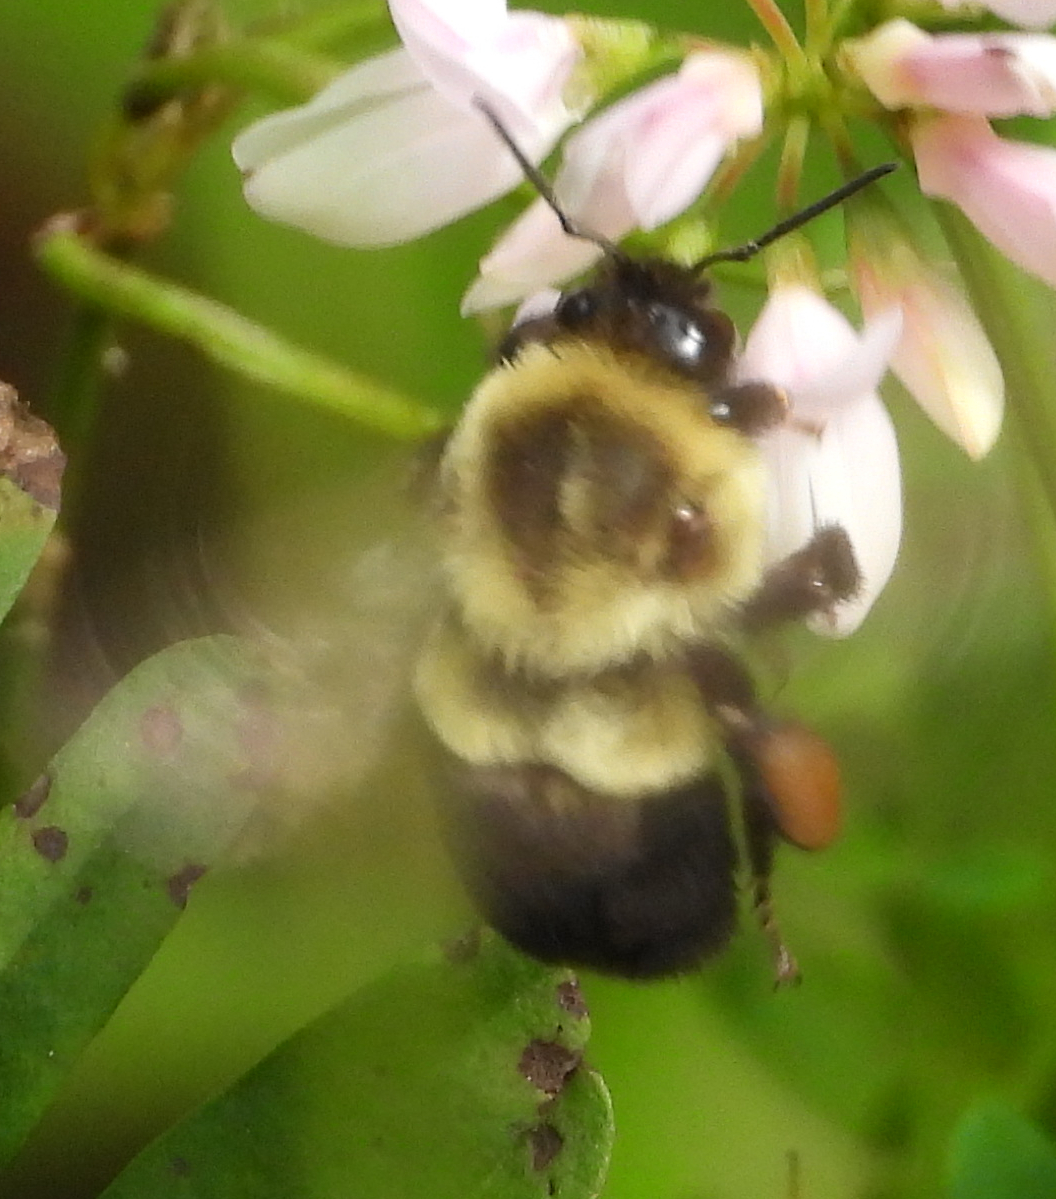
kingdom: Animalia
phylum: Arthropoda
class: Insecta
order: Hymenoptera
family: Apidae
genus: Bombus
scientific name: Bombus impatiens
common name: Common eastern bumble bee
